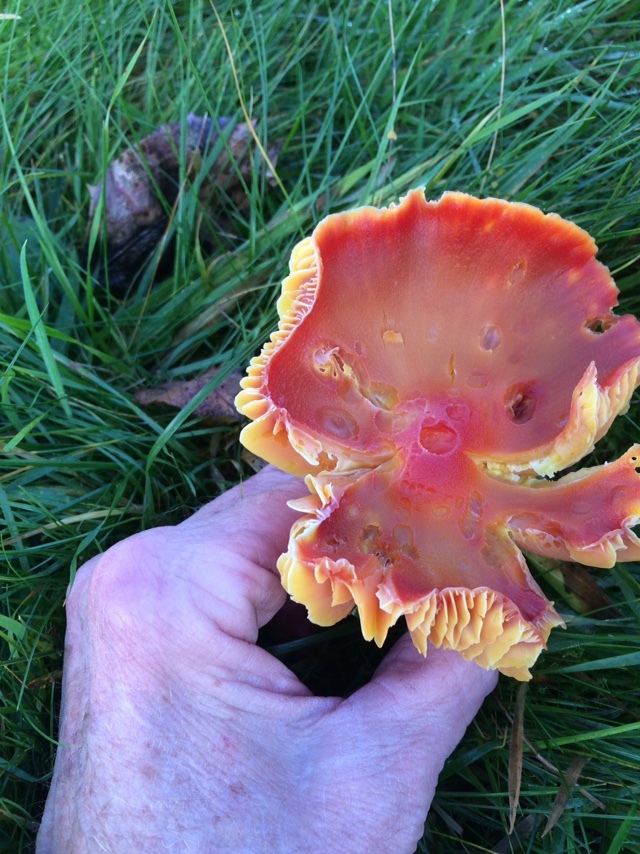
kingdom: Fungi
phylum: Basidiomycota
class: Agaricomycetes
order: Agaricales
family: Hygrophoraceae
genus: Hygrocybe
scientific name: Hygrocybe punicea
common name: Crimson waxcap
